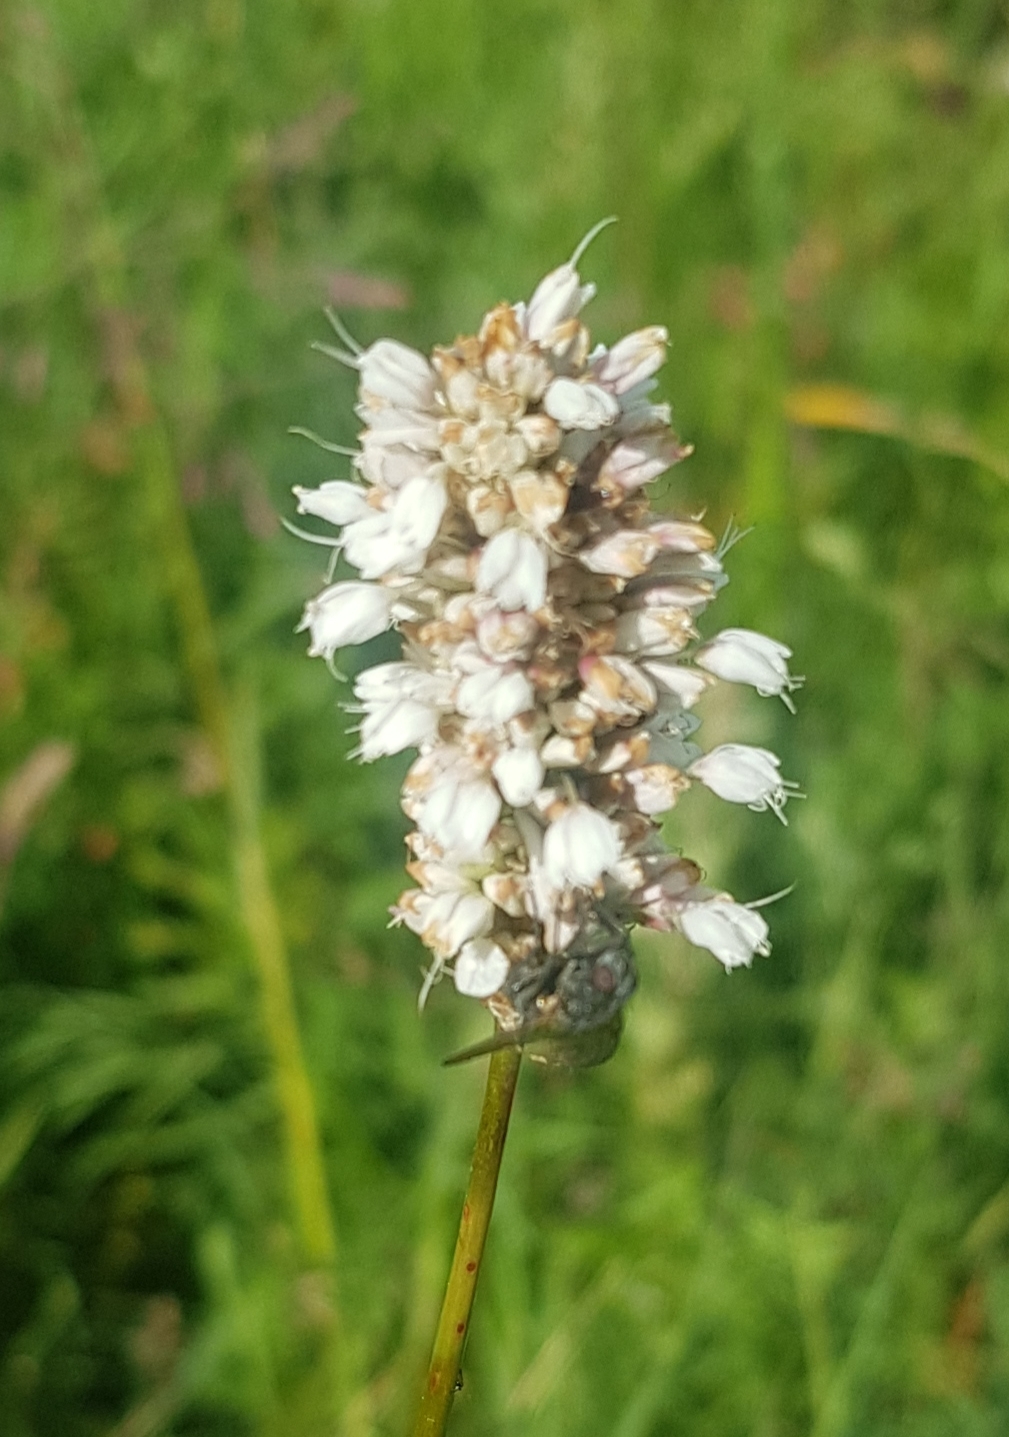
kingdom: Plantae
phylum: Tracheophyta
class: Magnoliopsida
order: Caryophyllales
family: Polygonaceae
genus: Bistorta
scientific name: Bistorta vivipara
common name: Alpine bistort
